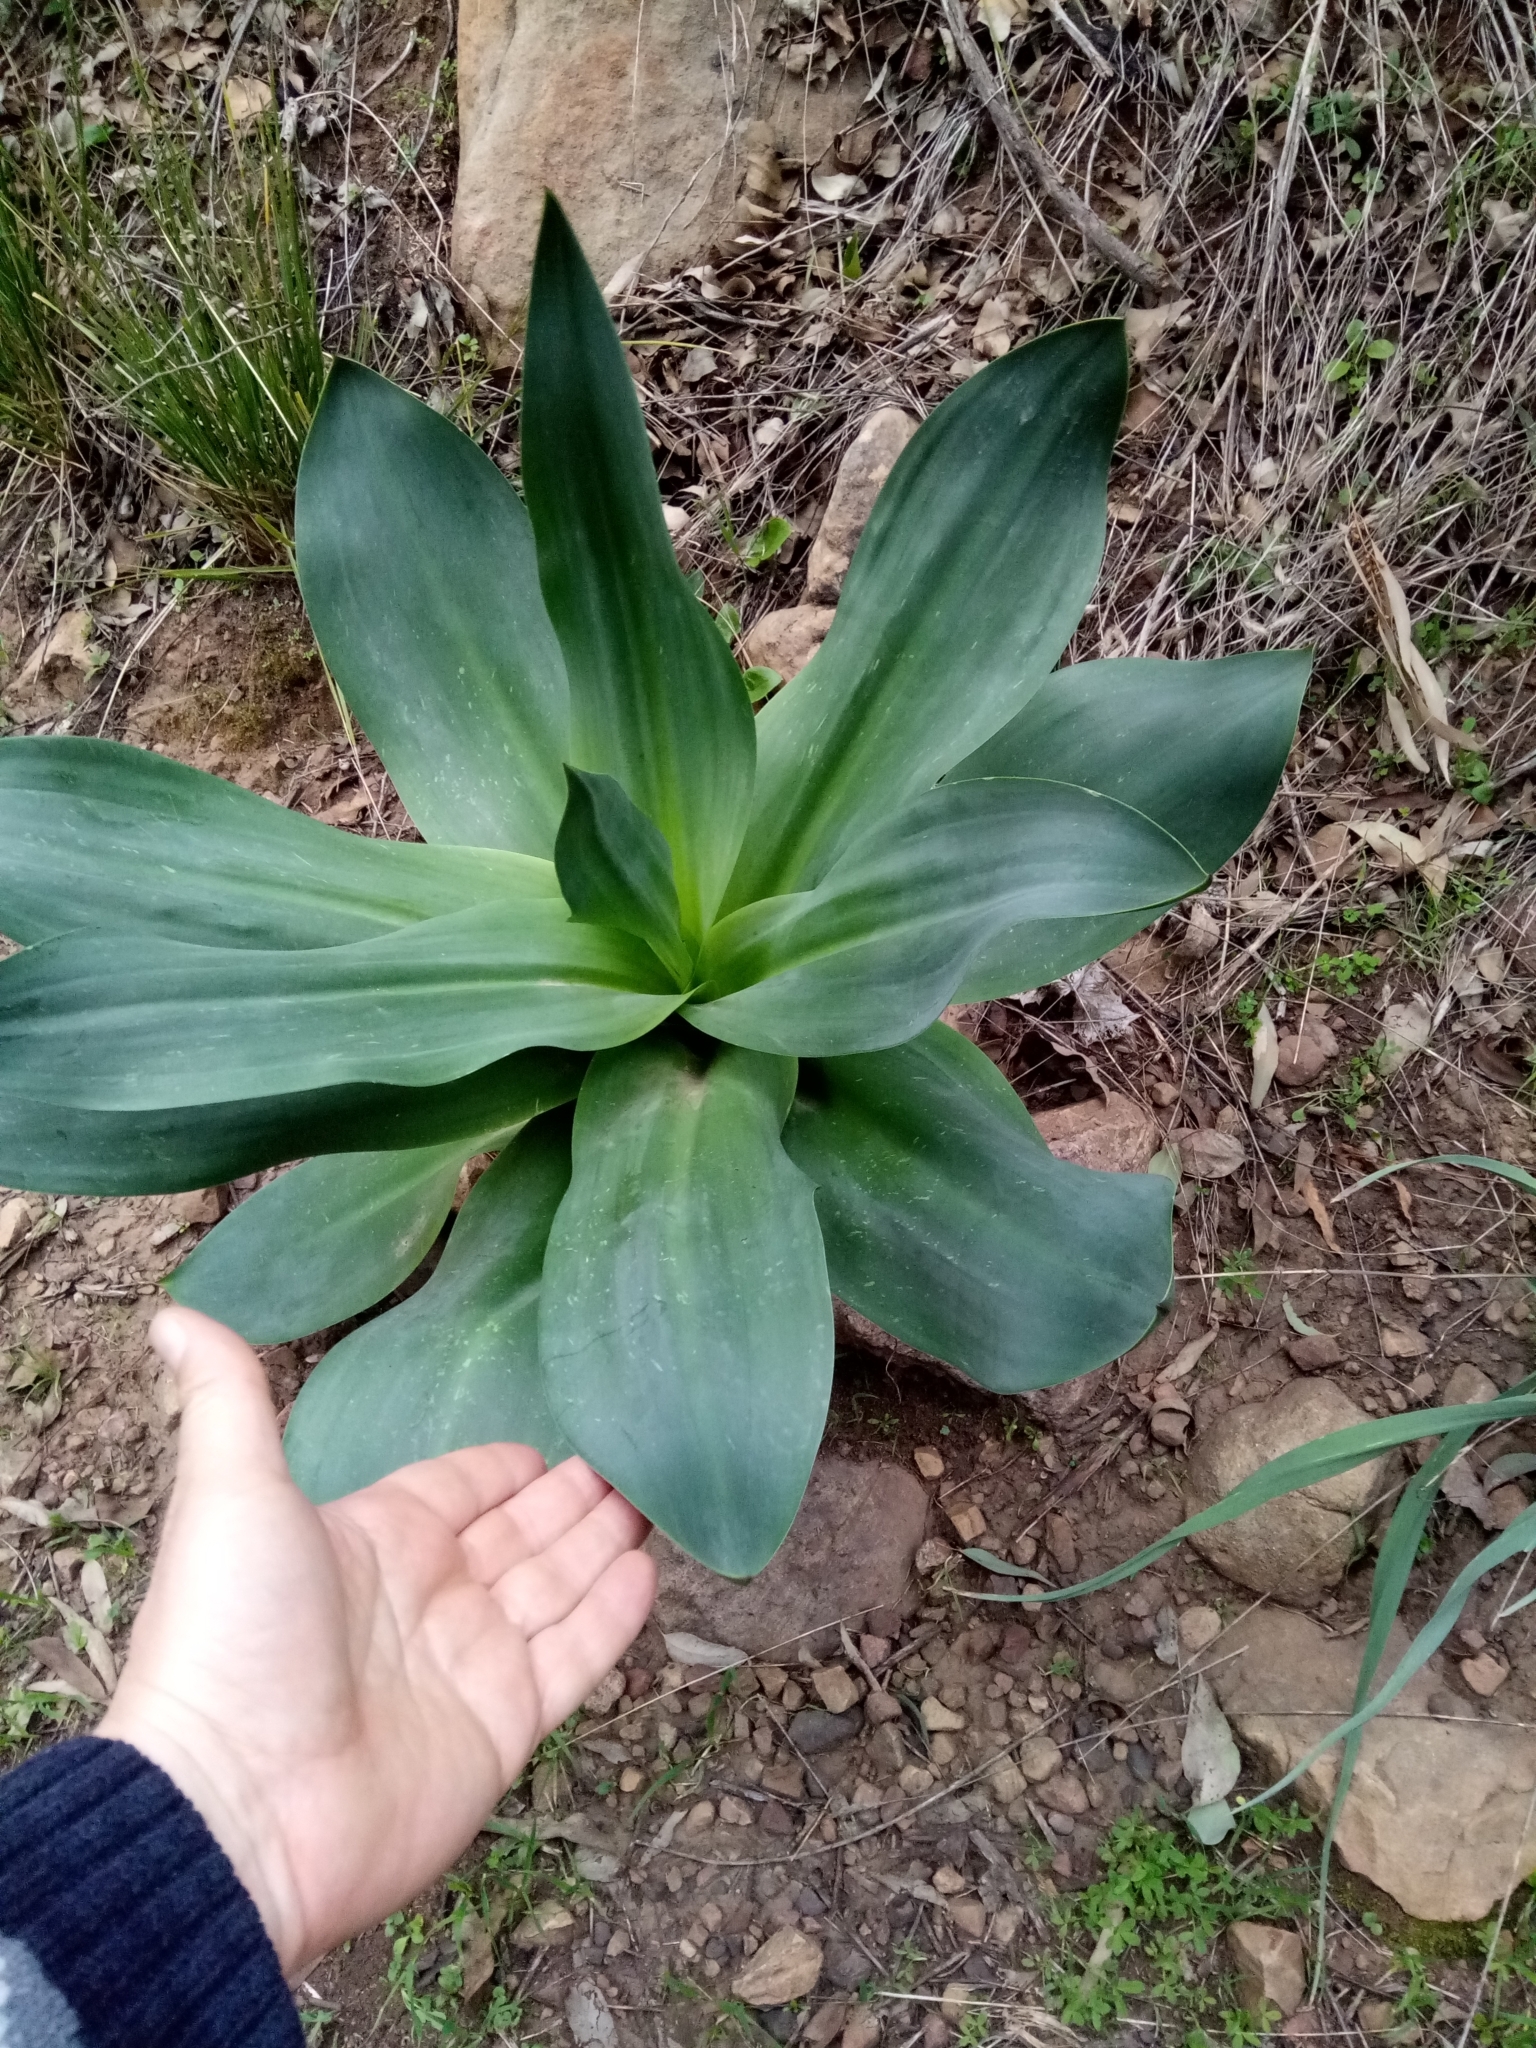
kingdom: Plantae
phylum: Tracheophyta
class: Liliopsida
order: Asparagales
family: Asparagaceae
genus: Drimia
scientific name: Drimia numidica
